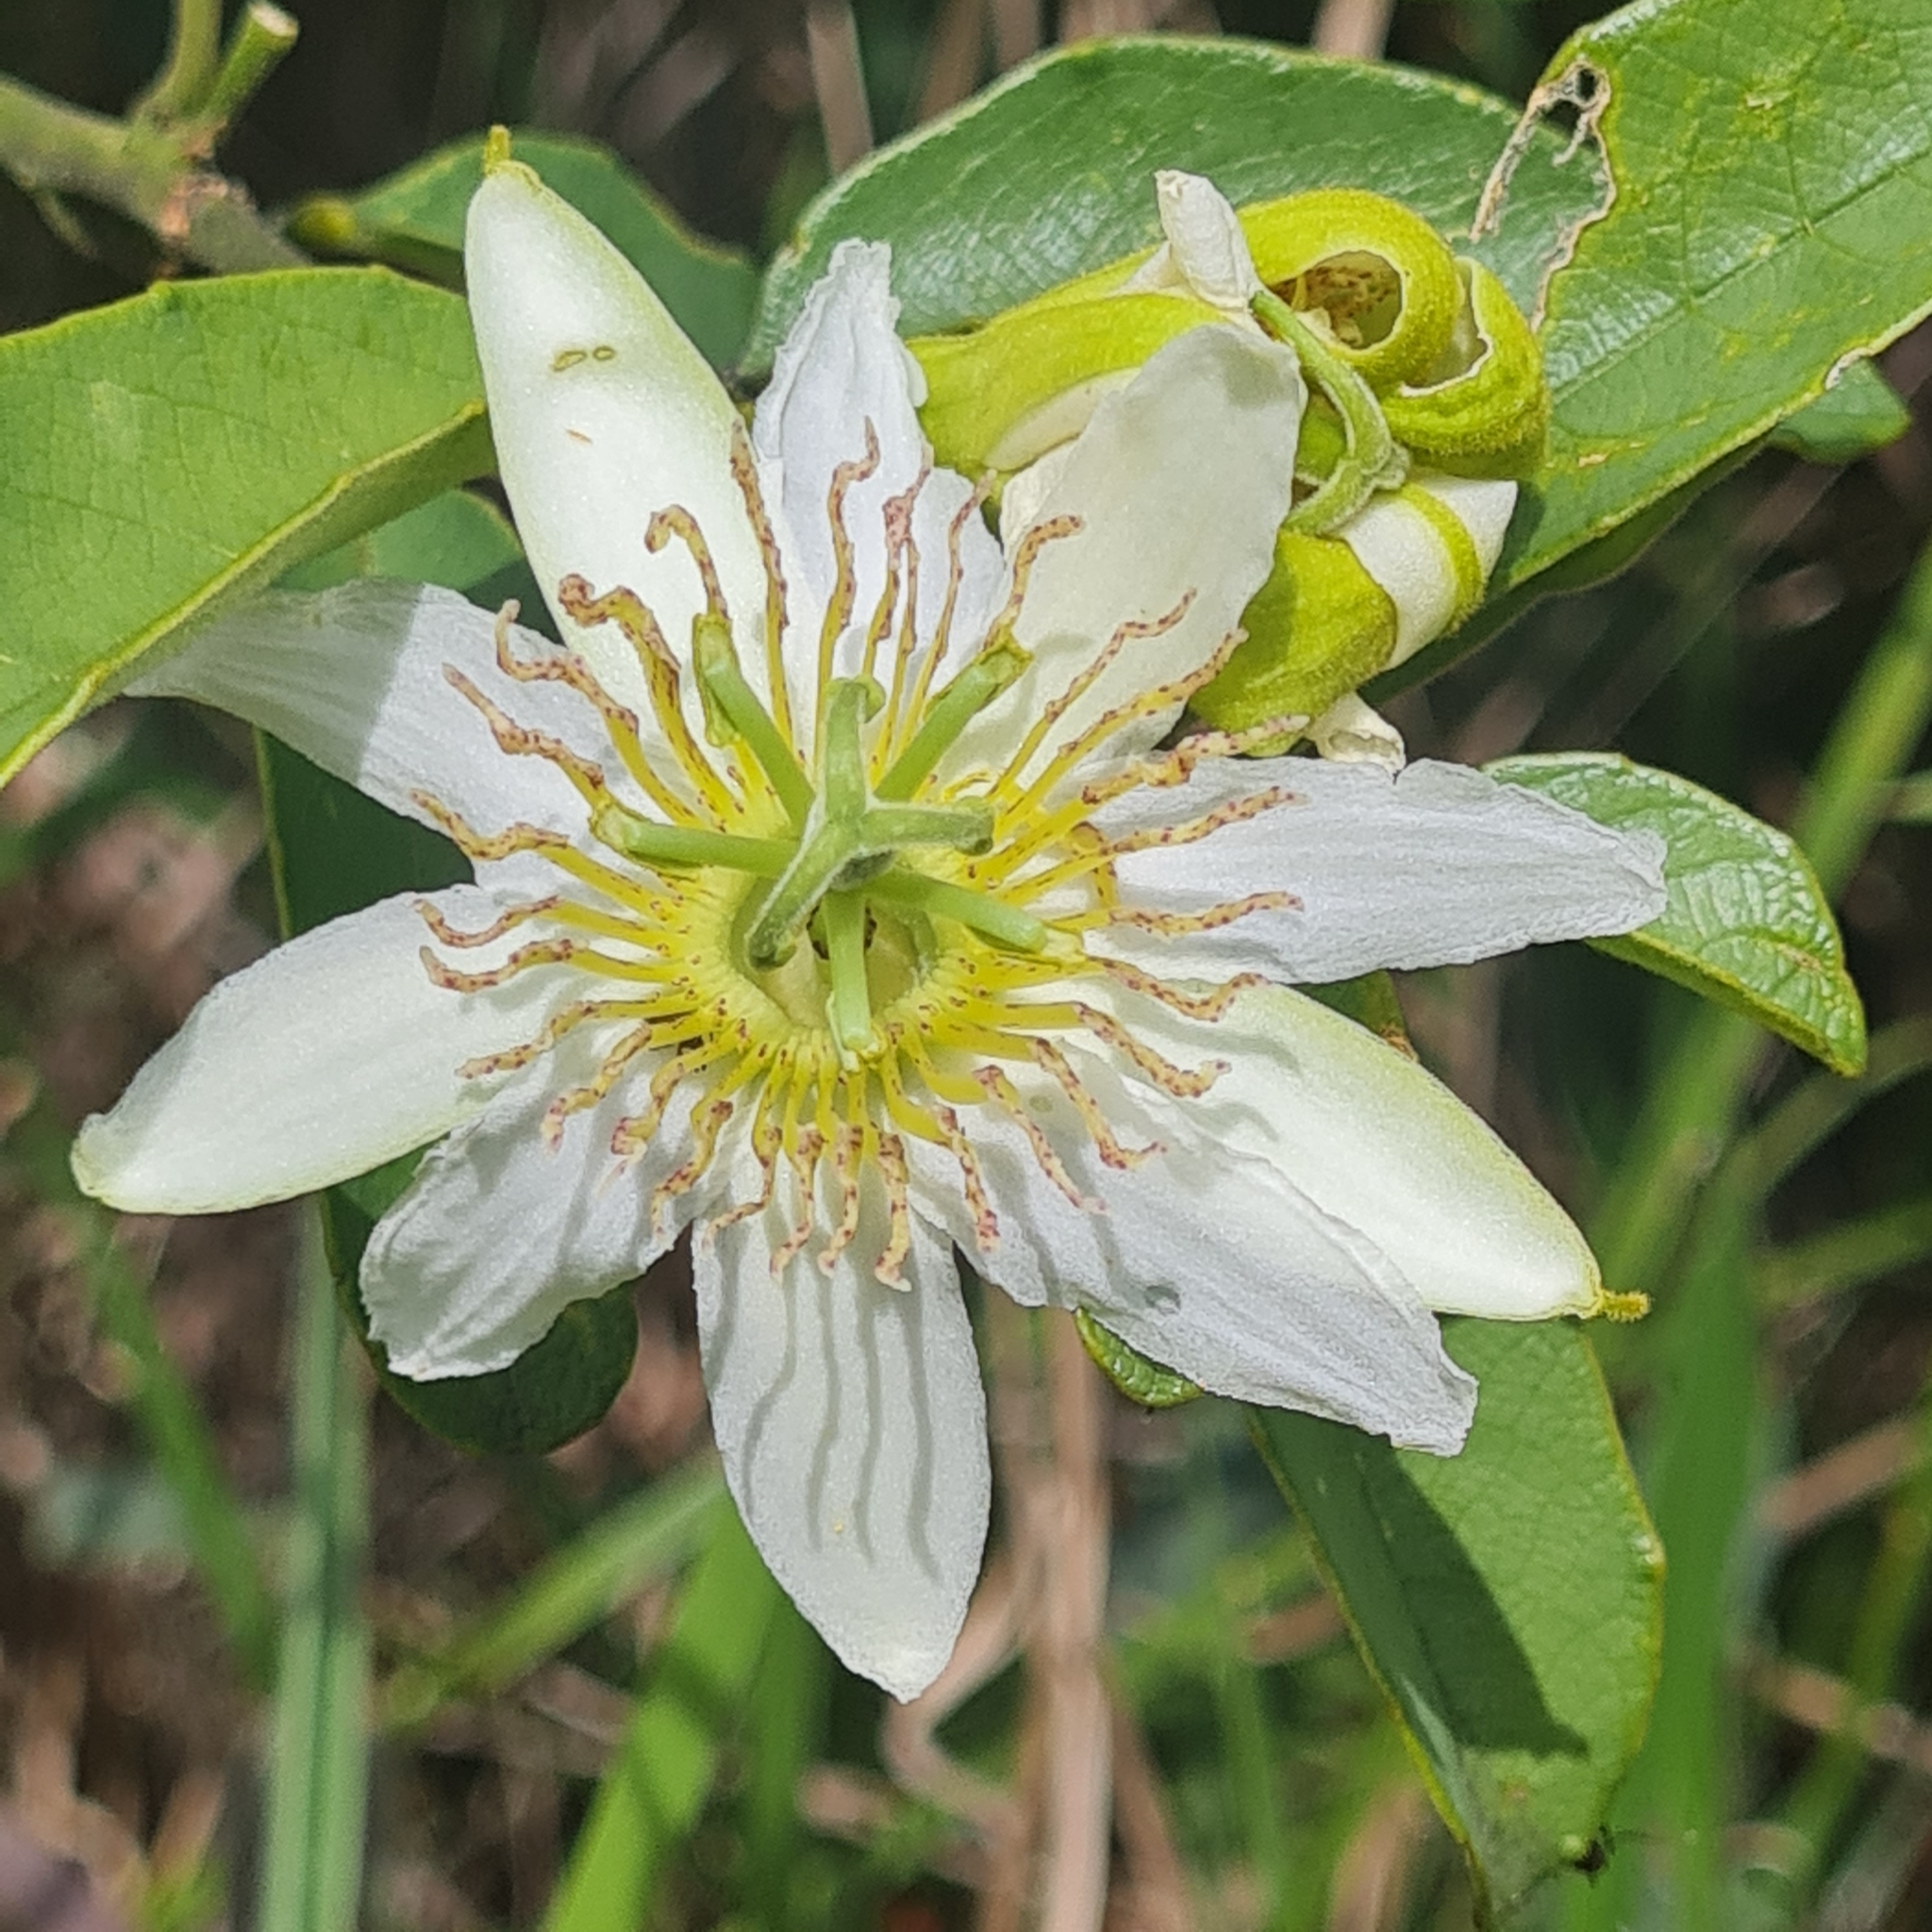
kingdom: Plantae
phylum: Tracheophyta
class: Magnoliopsida
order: Malpighiales
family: Passifloraceae
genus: Passiflora
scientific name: Passiflora haematostigma
